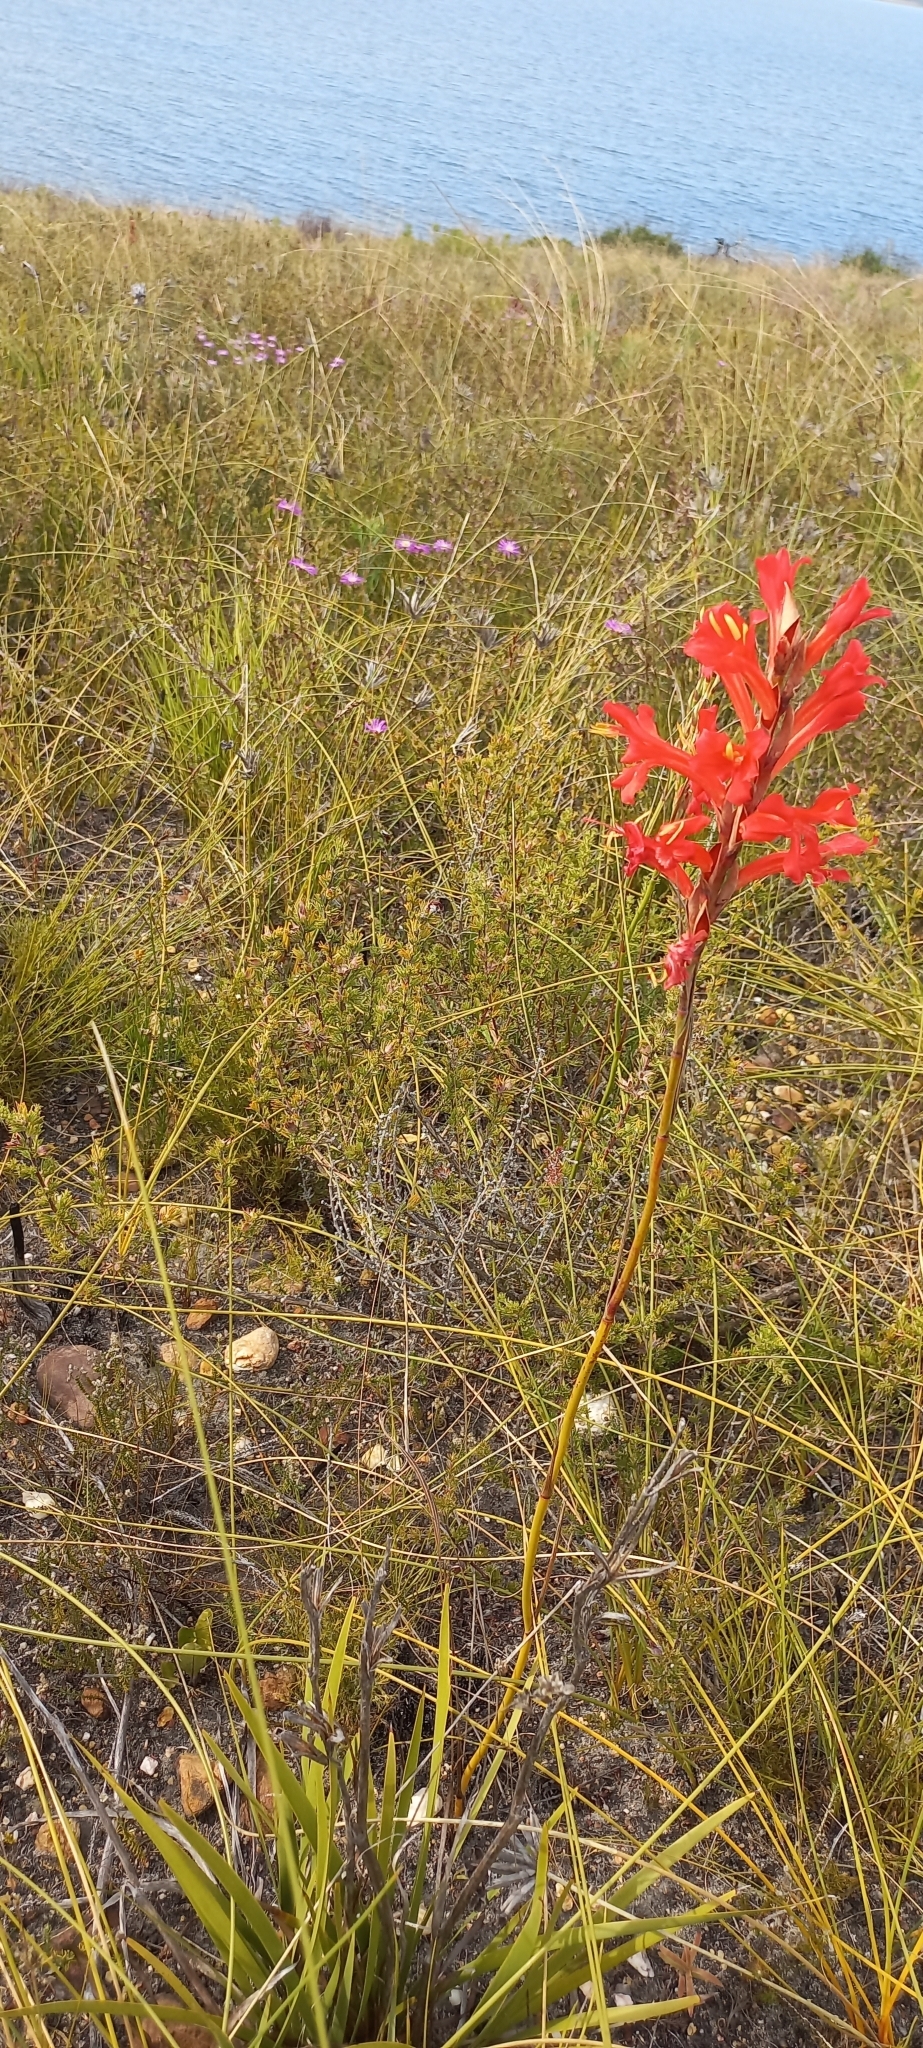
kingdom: Plantae
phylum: Tracheophyta
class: Liliopsida
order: Asparagales
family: Iridaceae
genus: Tritoniopsis
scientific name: Tritoniopsis triticea
